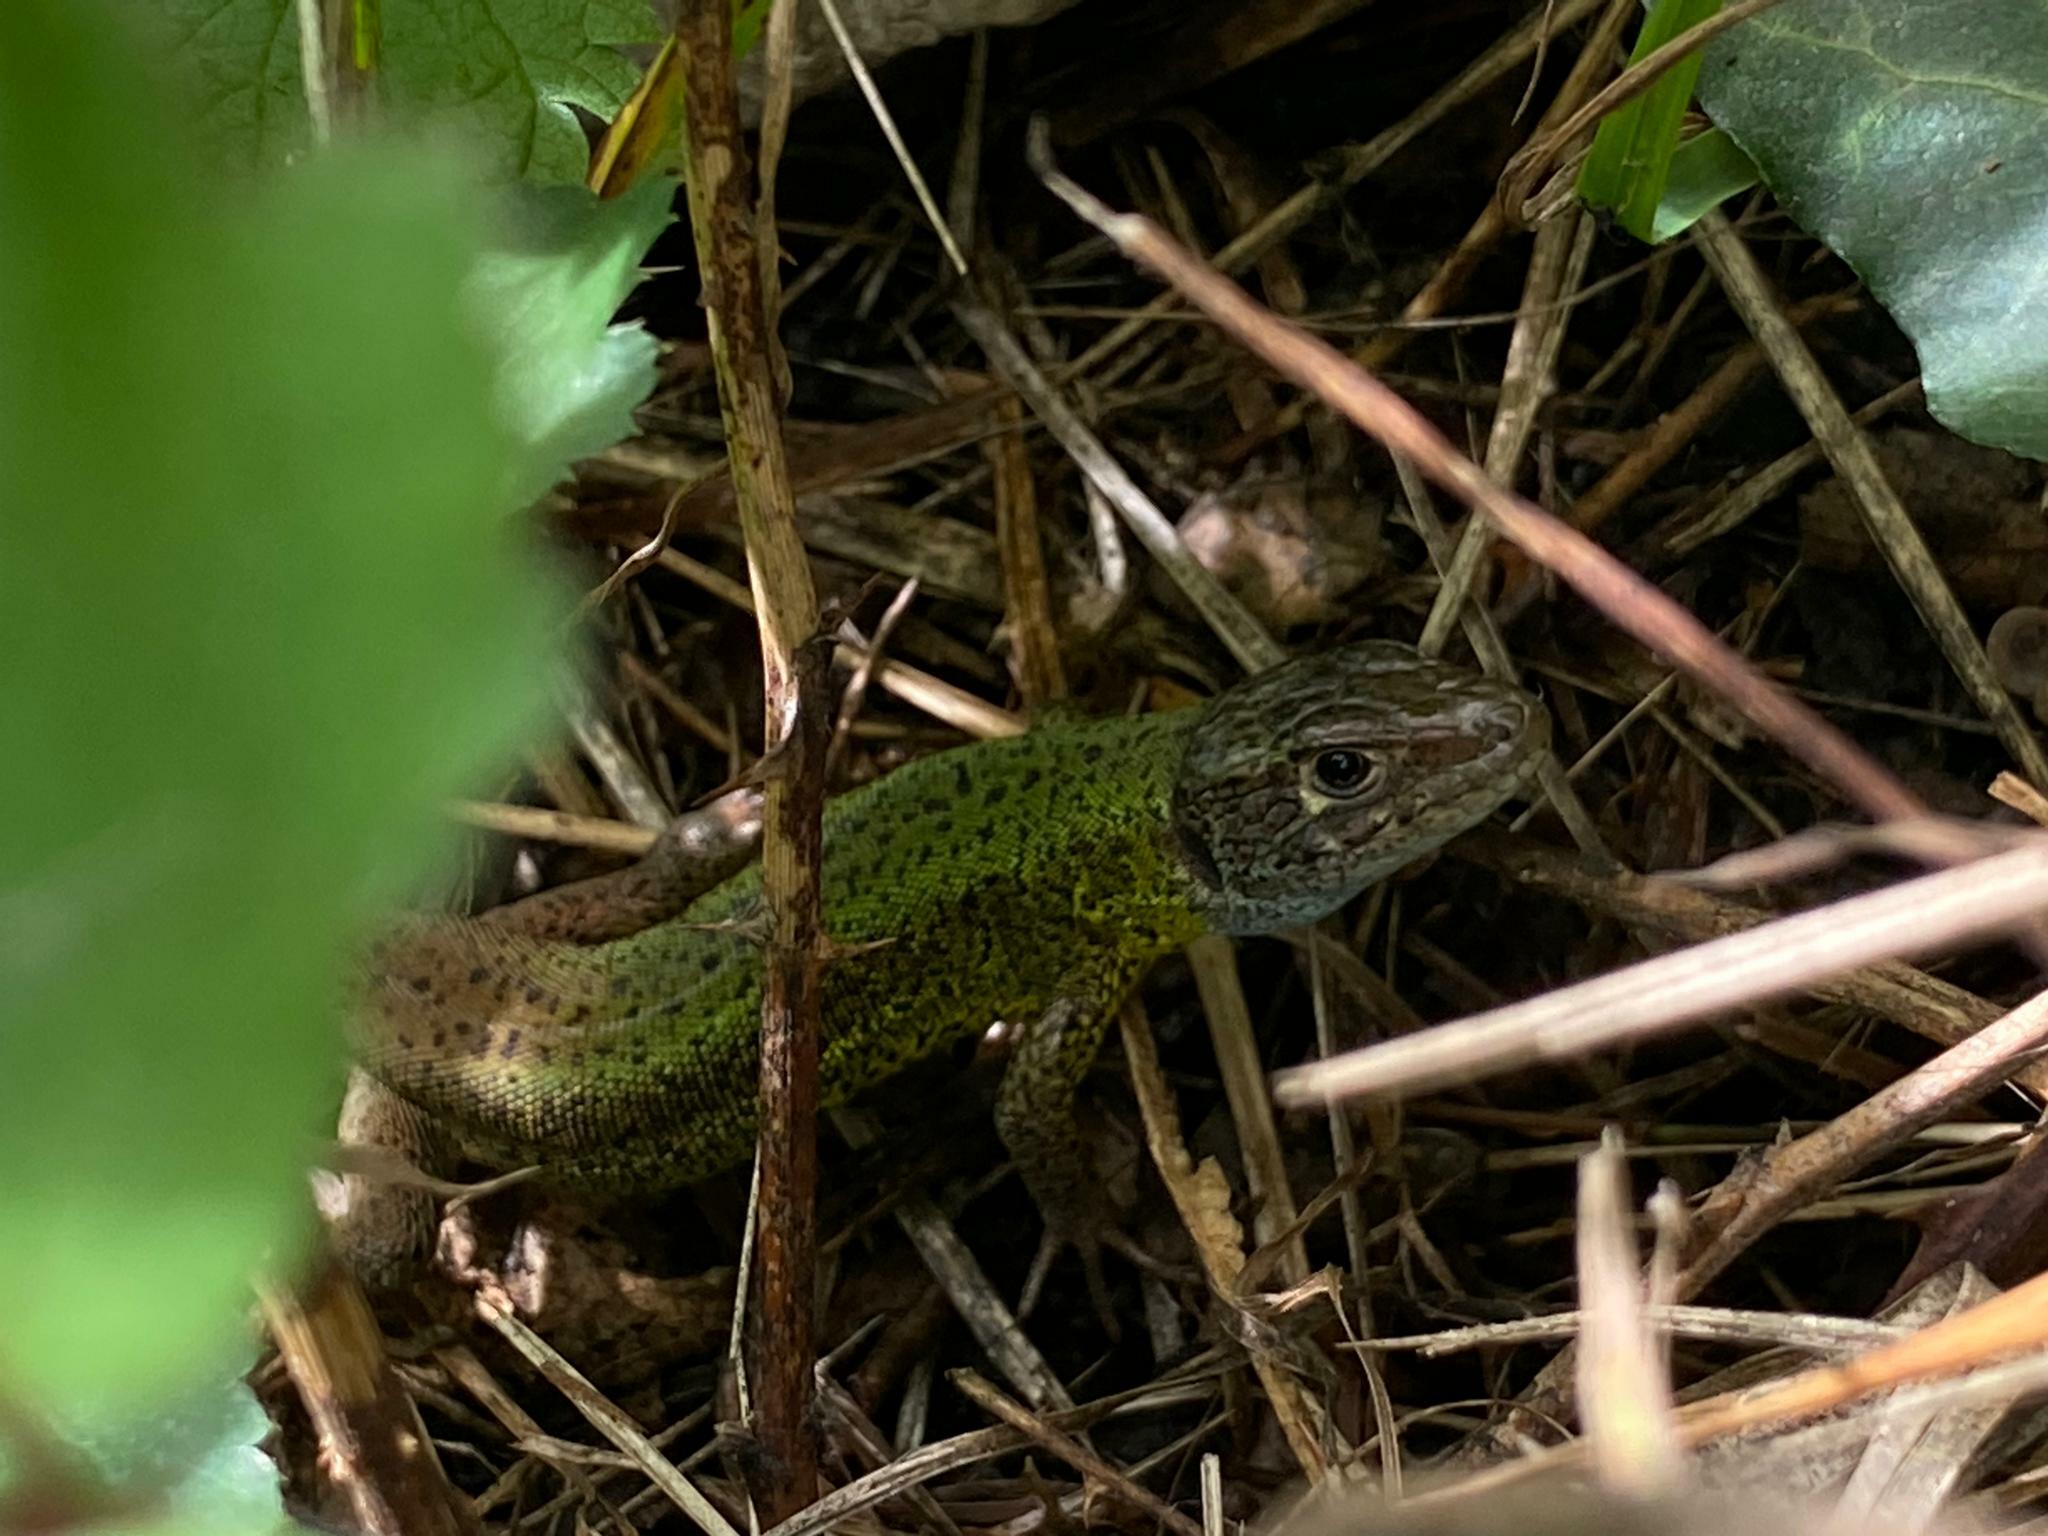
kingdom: Animalia
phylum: Chordata
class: Squamata
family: Lacertidae
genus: Lacerta
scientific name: Lacerta schreiberi
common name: Iberian emerald lizard
